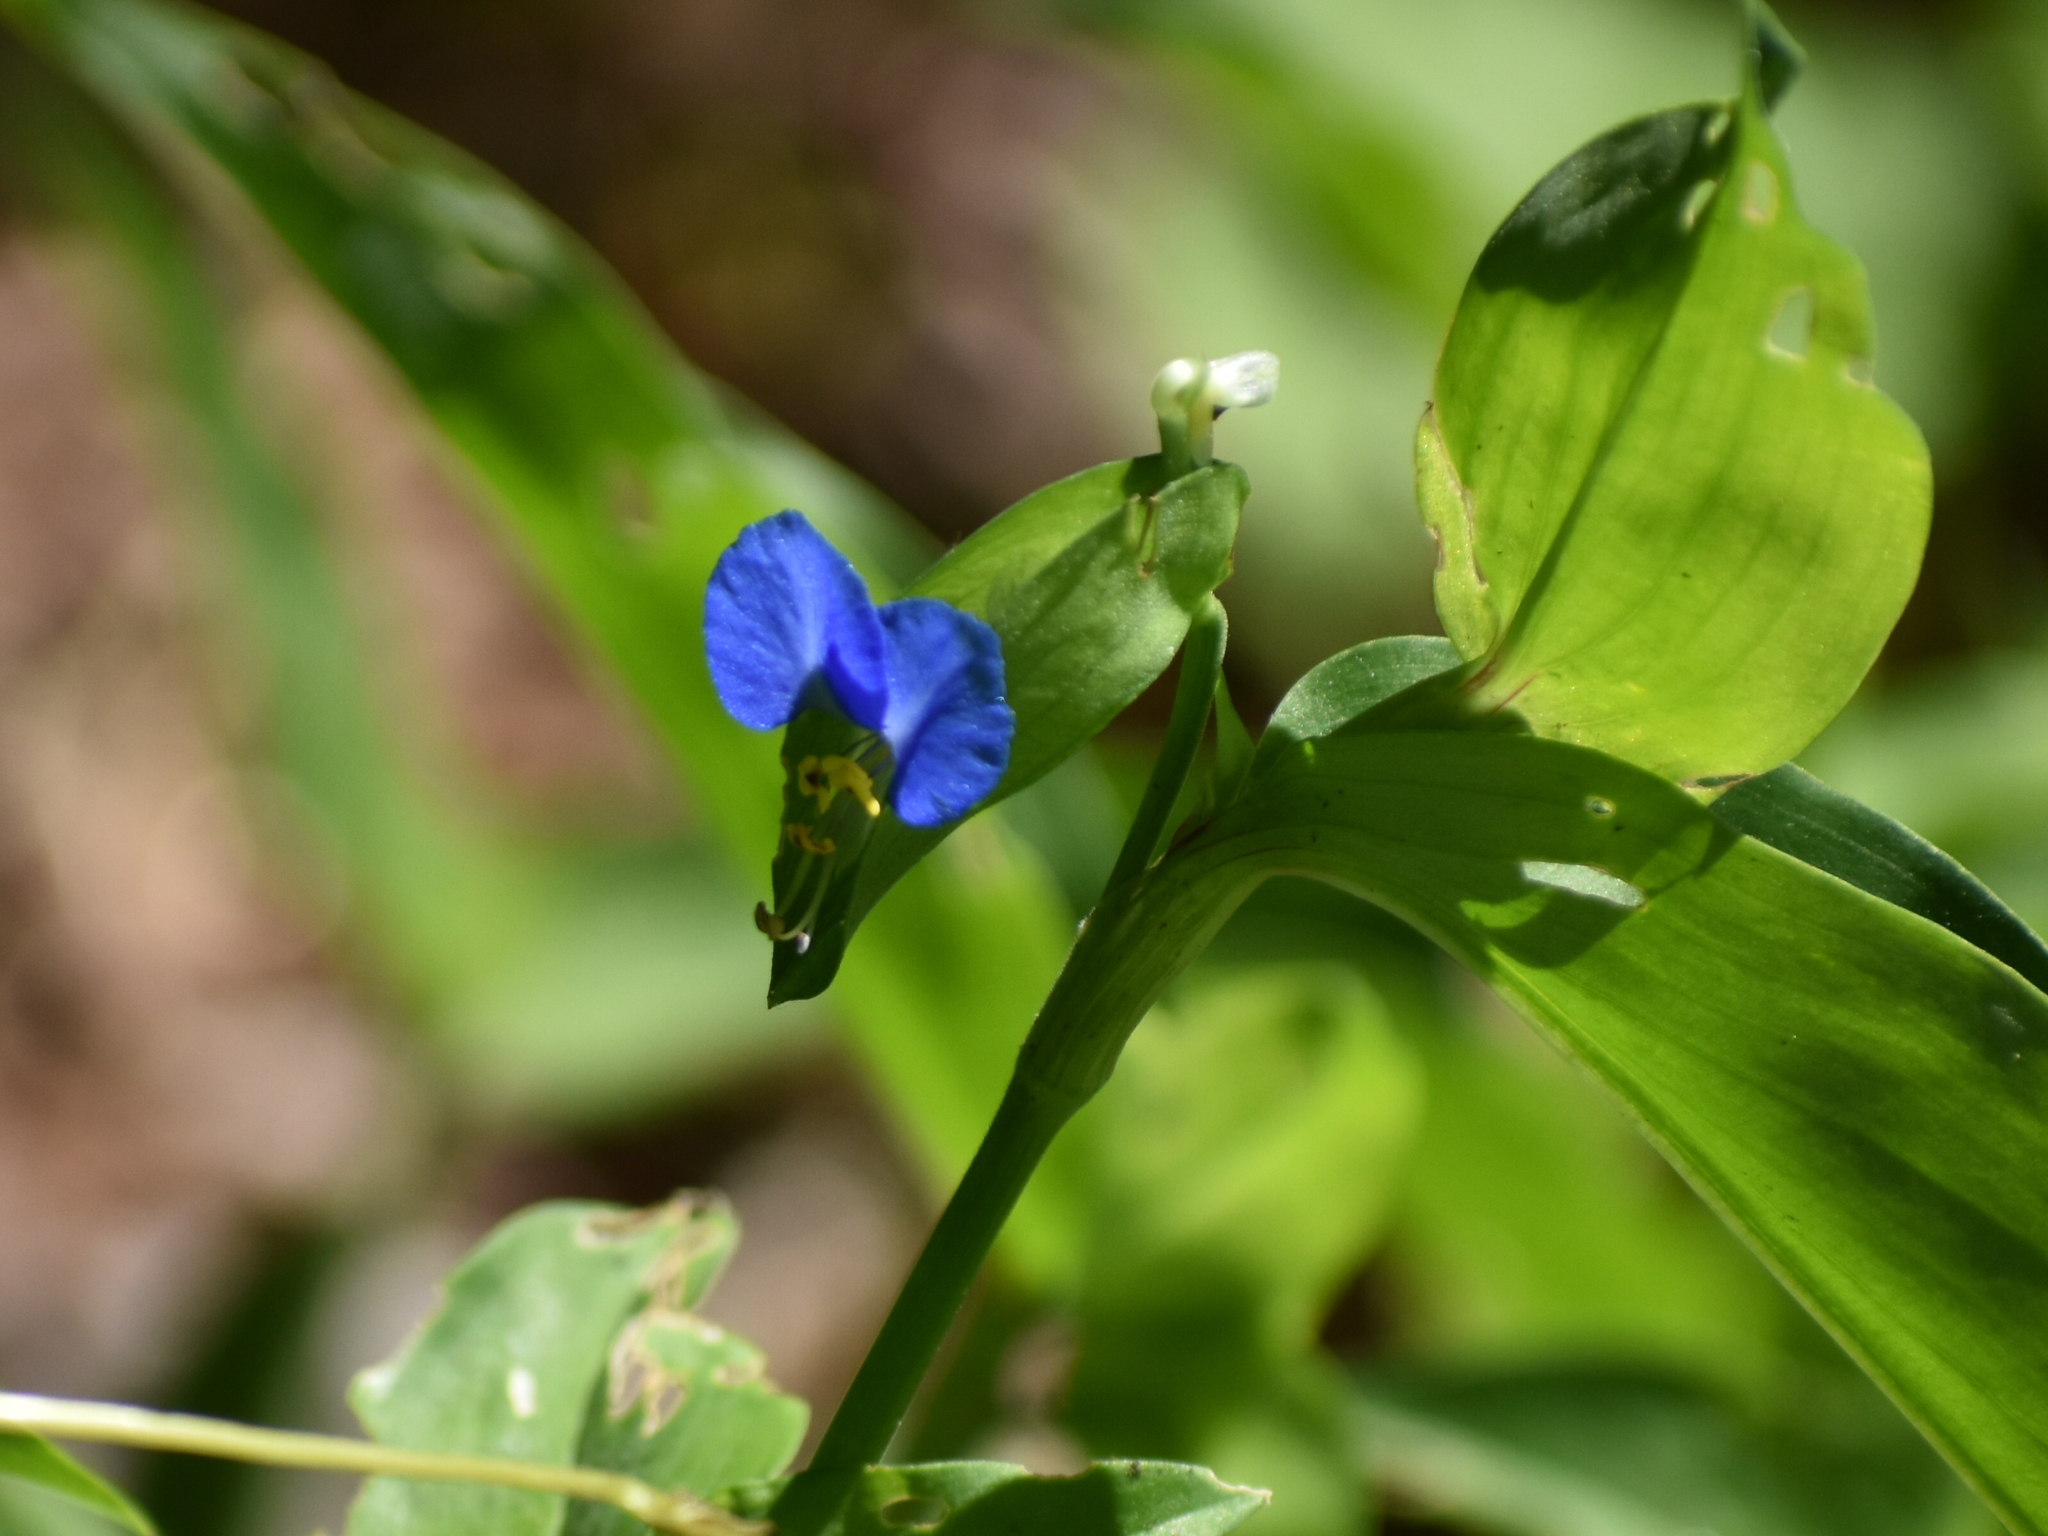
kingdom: Plantae
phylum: Tracheophyta
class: Liliopsida
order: Commelinales
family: Commelinaceae
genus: Commelina
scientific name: Commelina communis
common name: Asiatic dayflower
